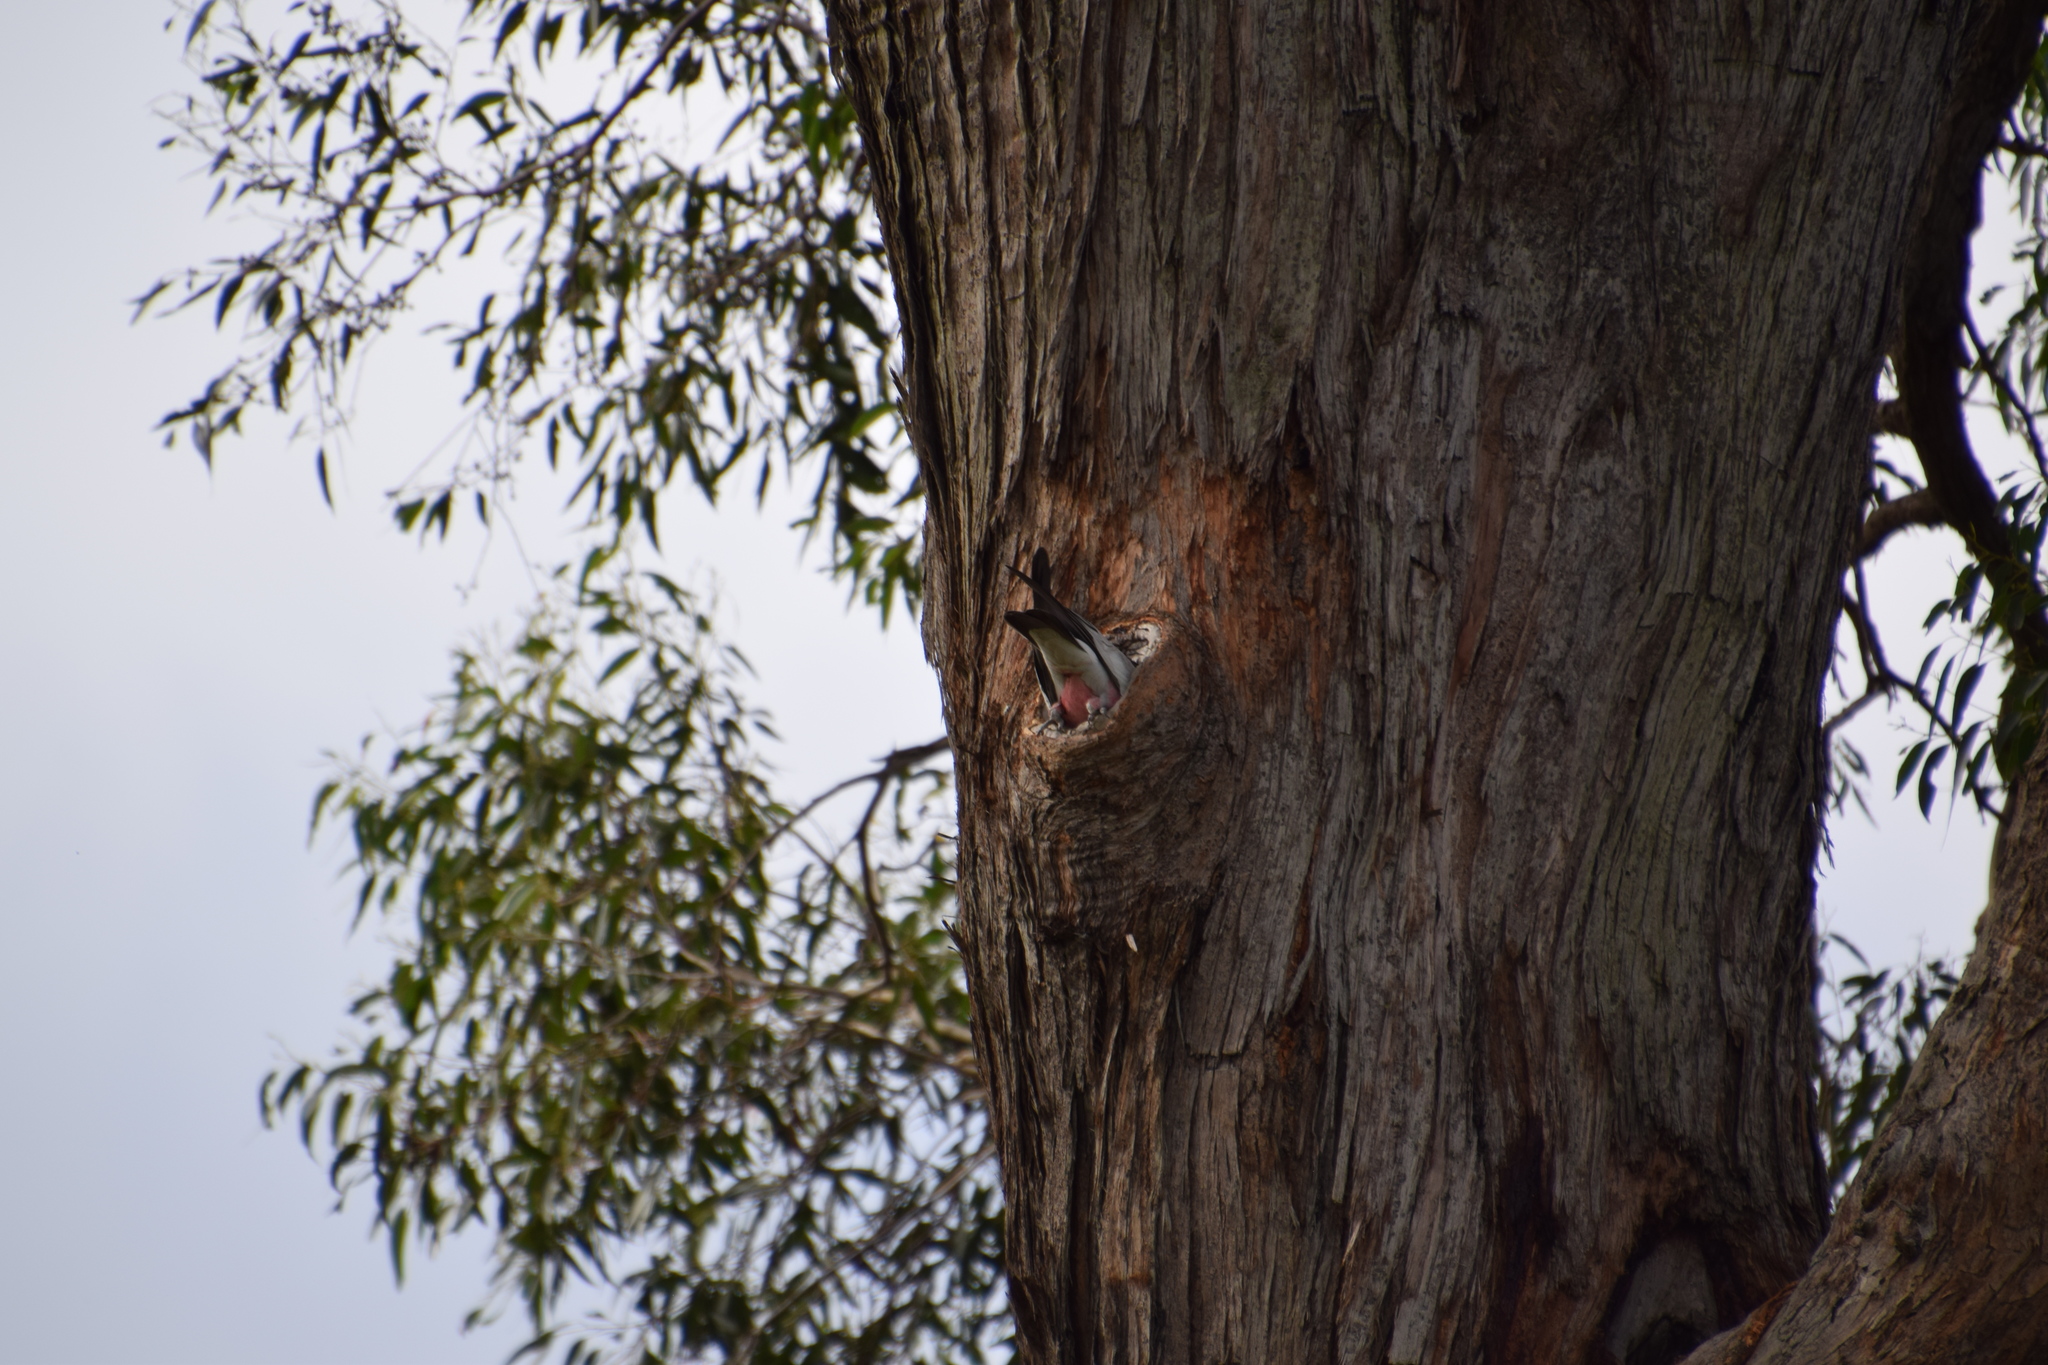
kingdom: Animalia
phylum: Chordata
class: Aves
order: Psittaciformes
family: Psittacidae
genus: Eolophus
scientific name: Eolophus roseicapilla
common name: Galah
